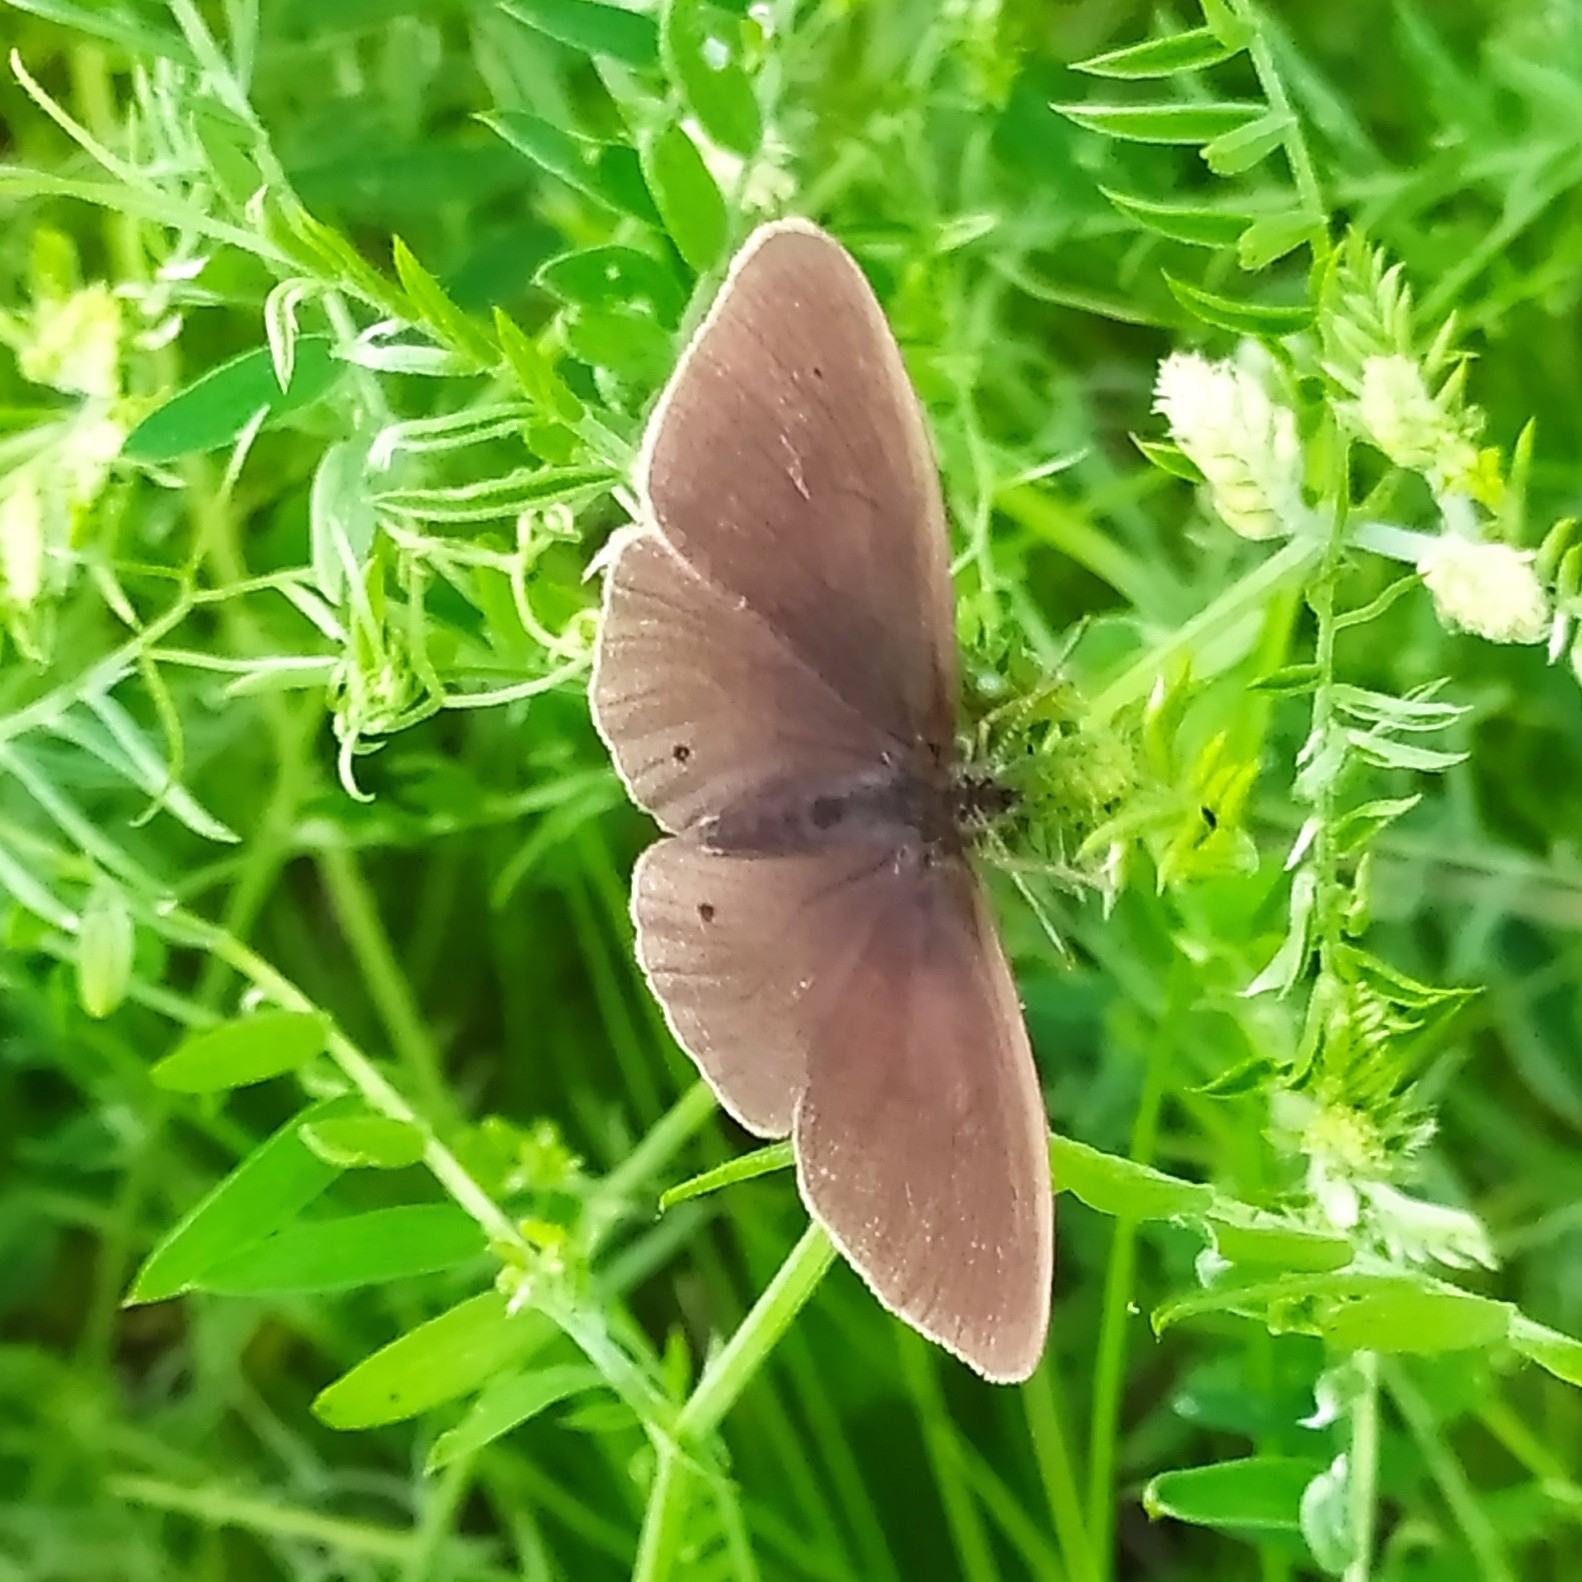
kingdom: Animalia
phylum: Arthropoda
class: Insecta
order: Lepidoptera
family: Nymphalidae
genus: Aphantopus
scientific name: Aphantopus hyperantus
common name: Ringlet
